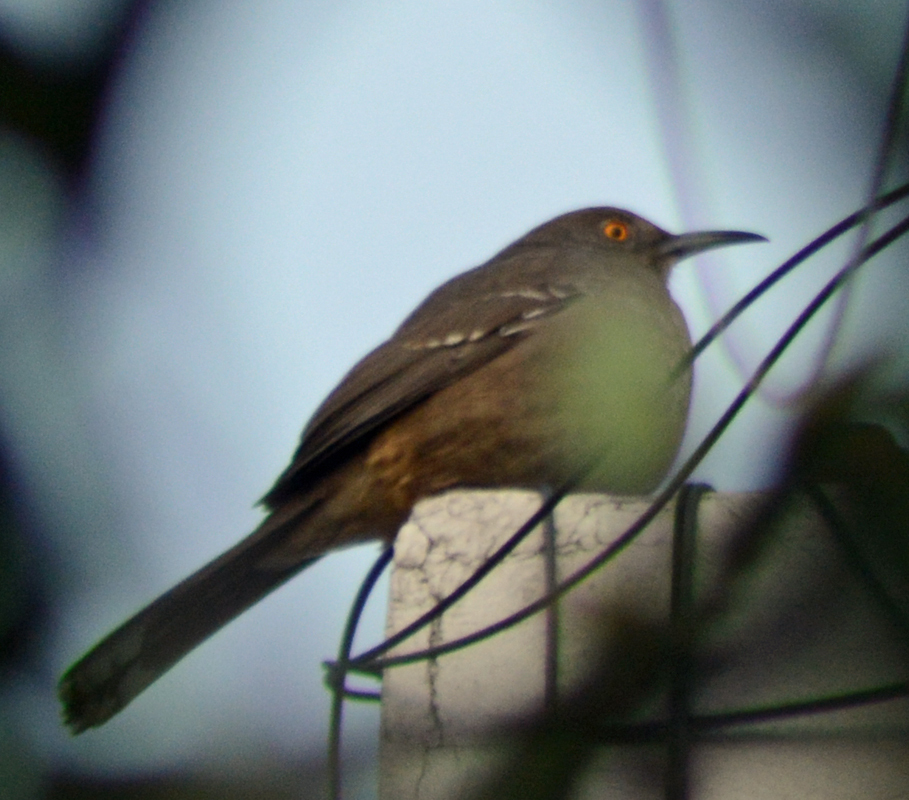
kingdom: Animalia
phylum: Chordata
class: Aves
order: Passeriformes
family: Mimidae
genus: Toxostoma
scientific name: Toxostoma curvirostre
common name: Curve-billed thrasher
